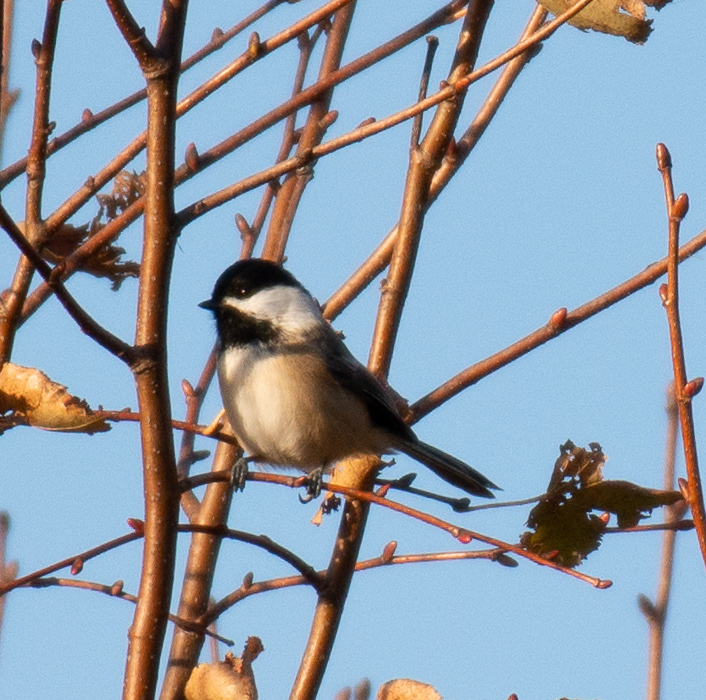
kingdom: Animalia
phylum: Chordata
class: Aves
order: Passeriformes
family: Paridae
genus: Poecile
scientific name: Poecile atricapillus
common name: Black-capped chickadee
